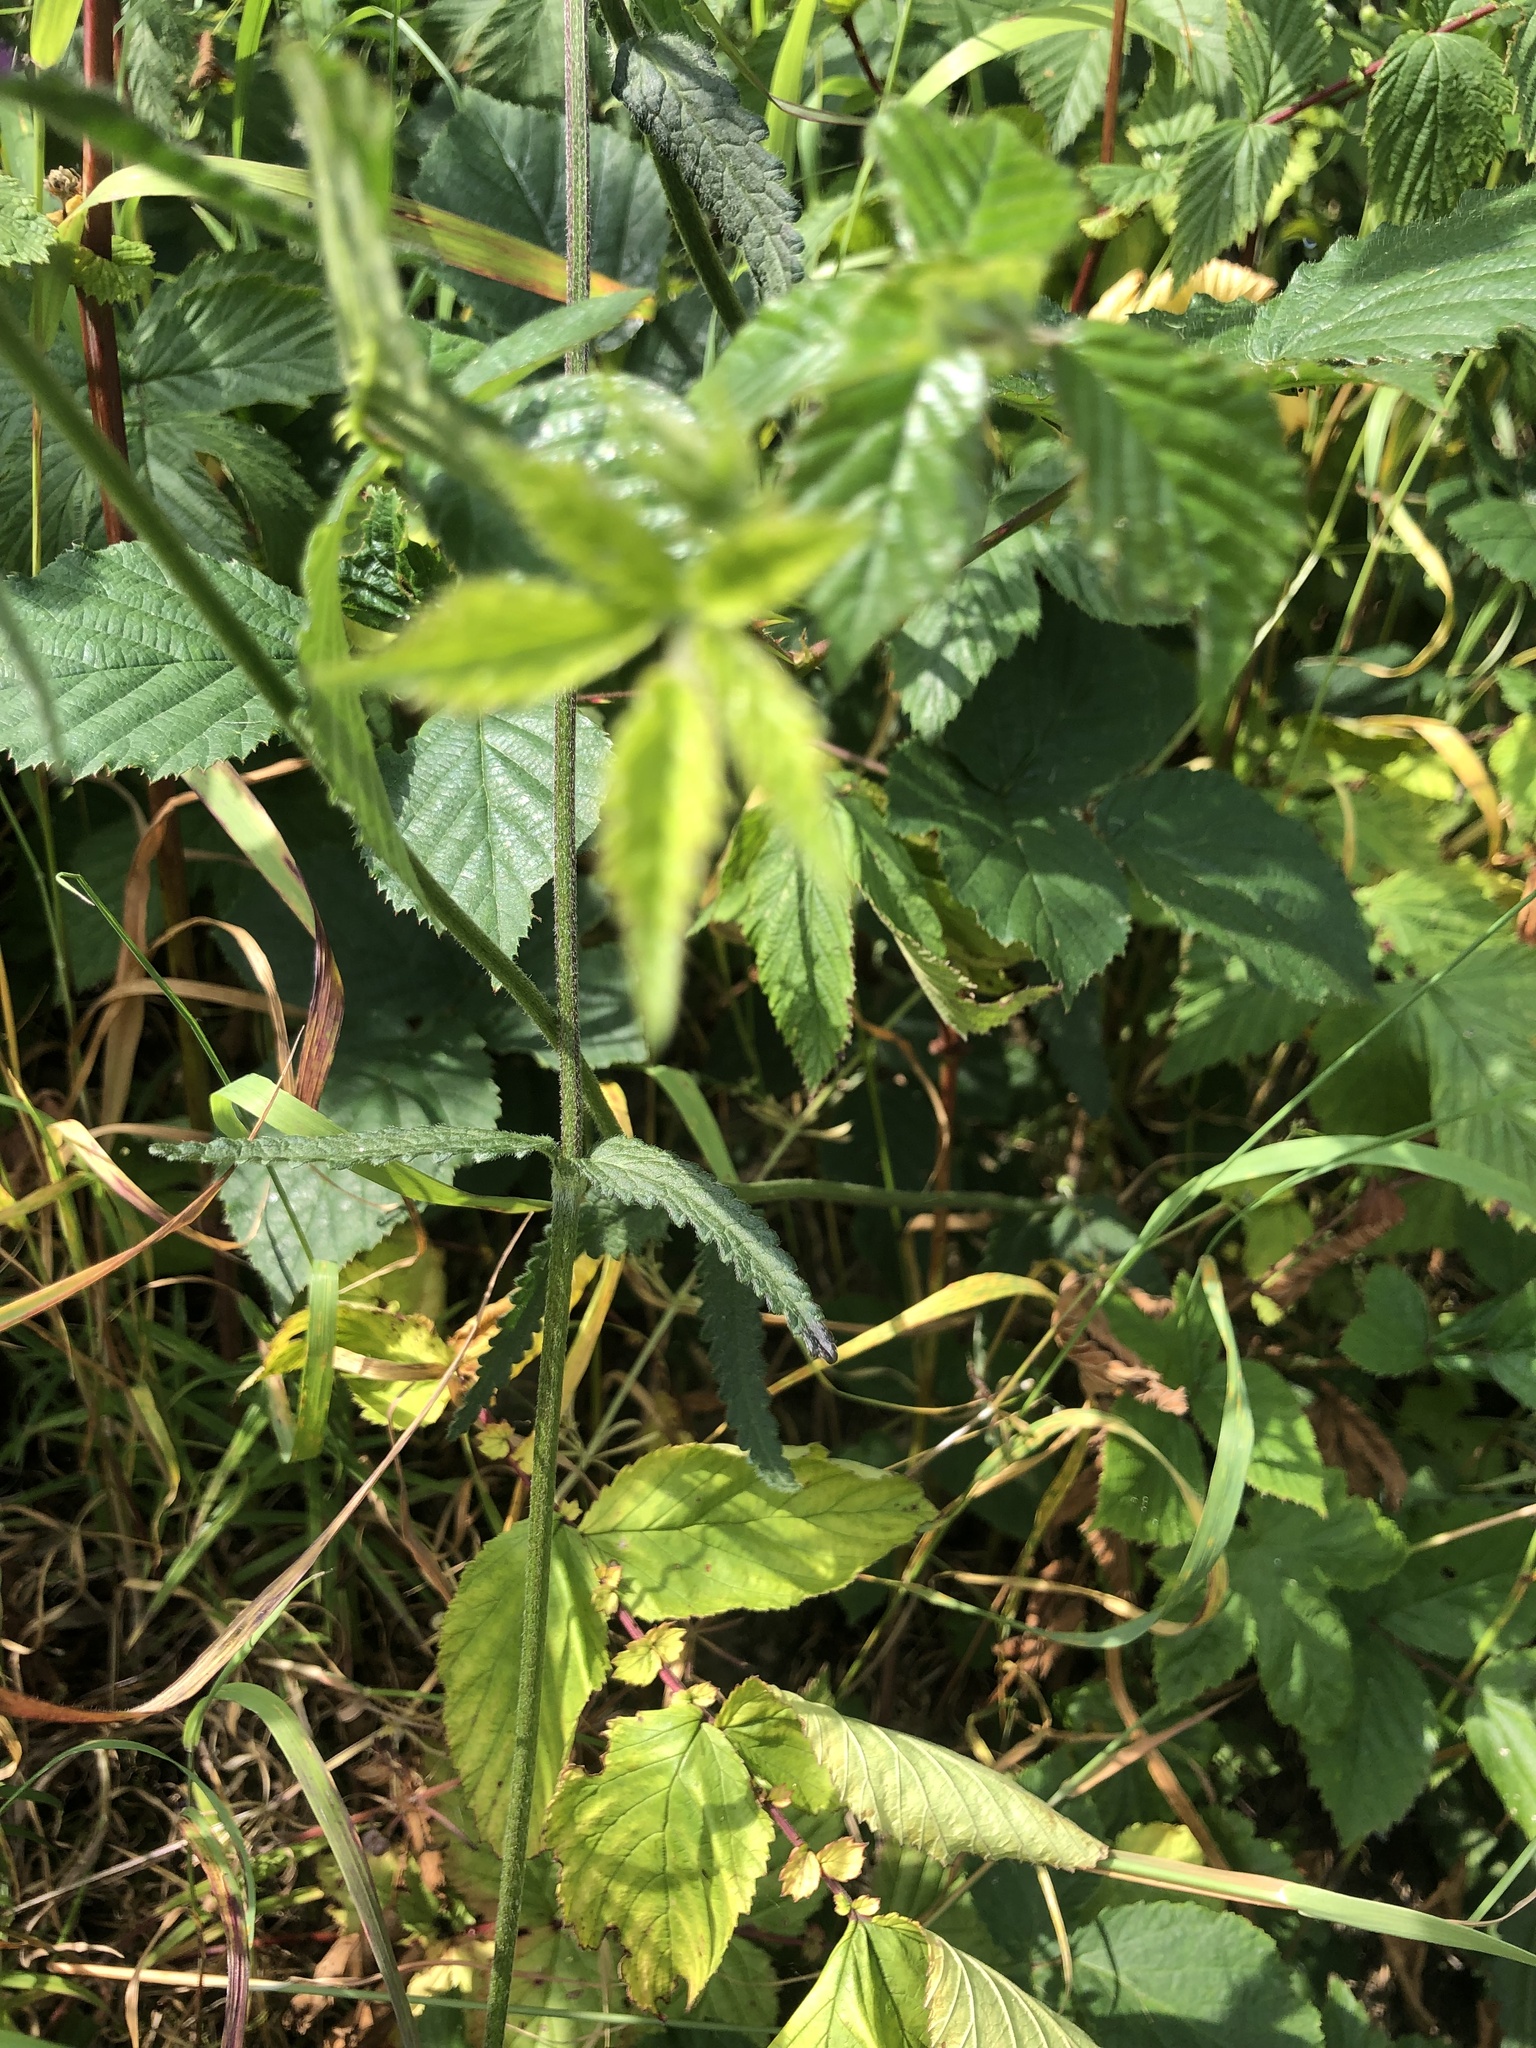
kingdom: Plantae
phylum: Tracheophyta
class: Magnoliopsida
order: Lamiales
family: Lamiaceae
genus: Betonica
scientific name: Betonica officinalis
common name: Bishop's-wort
